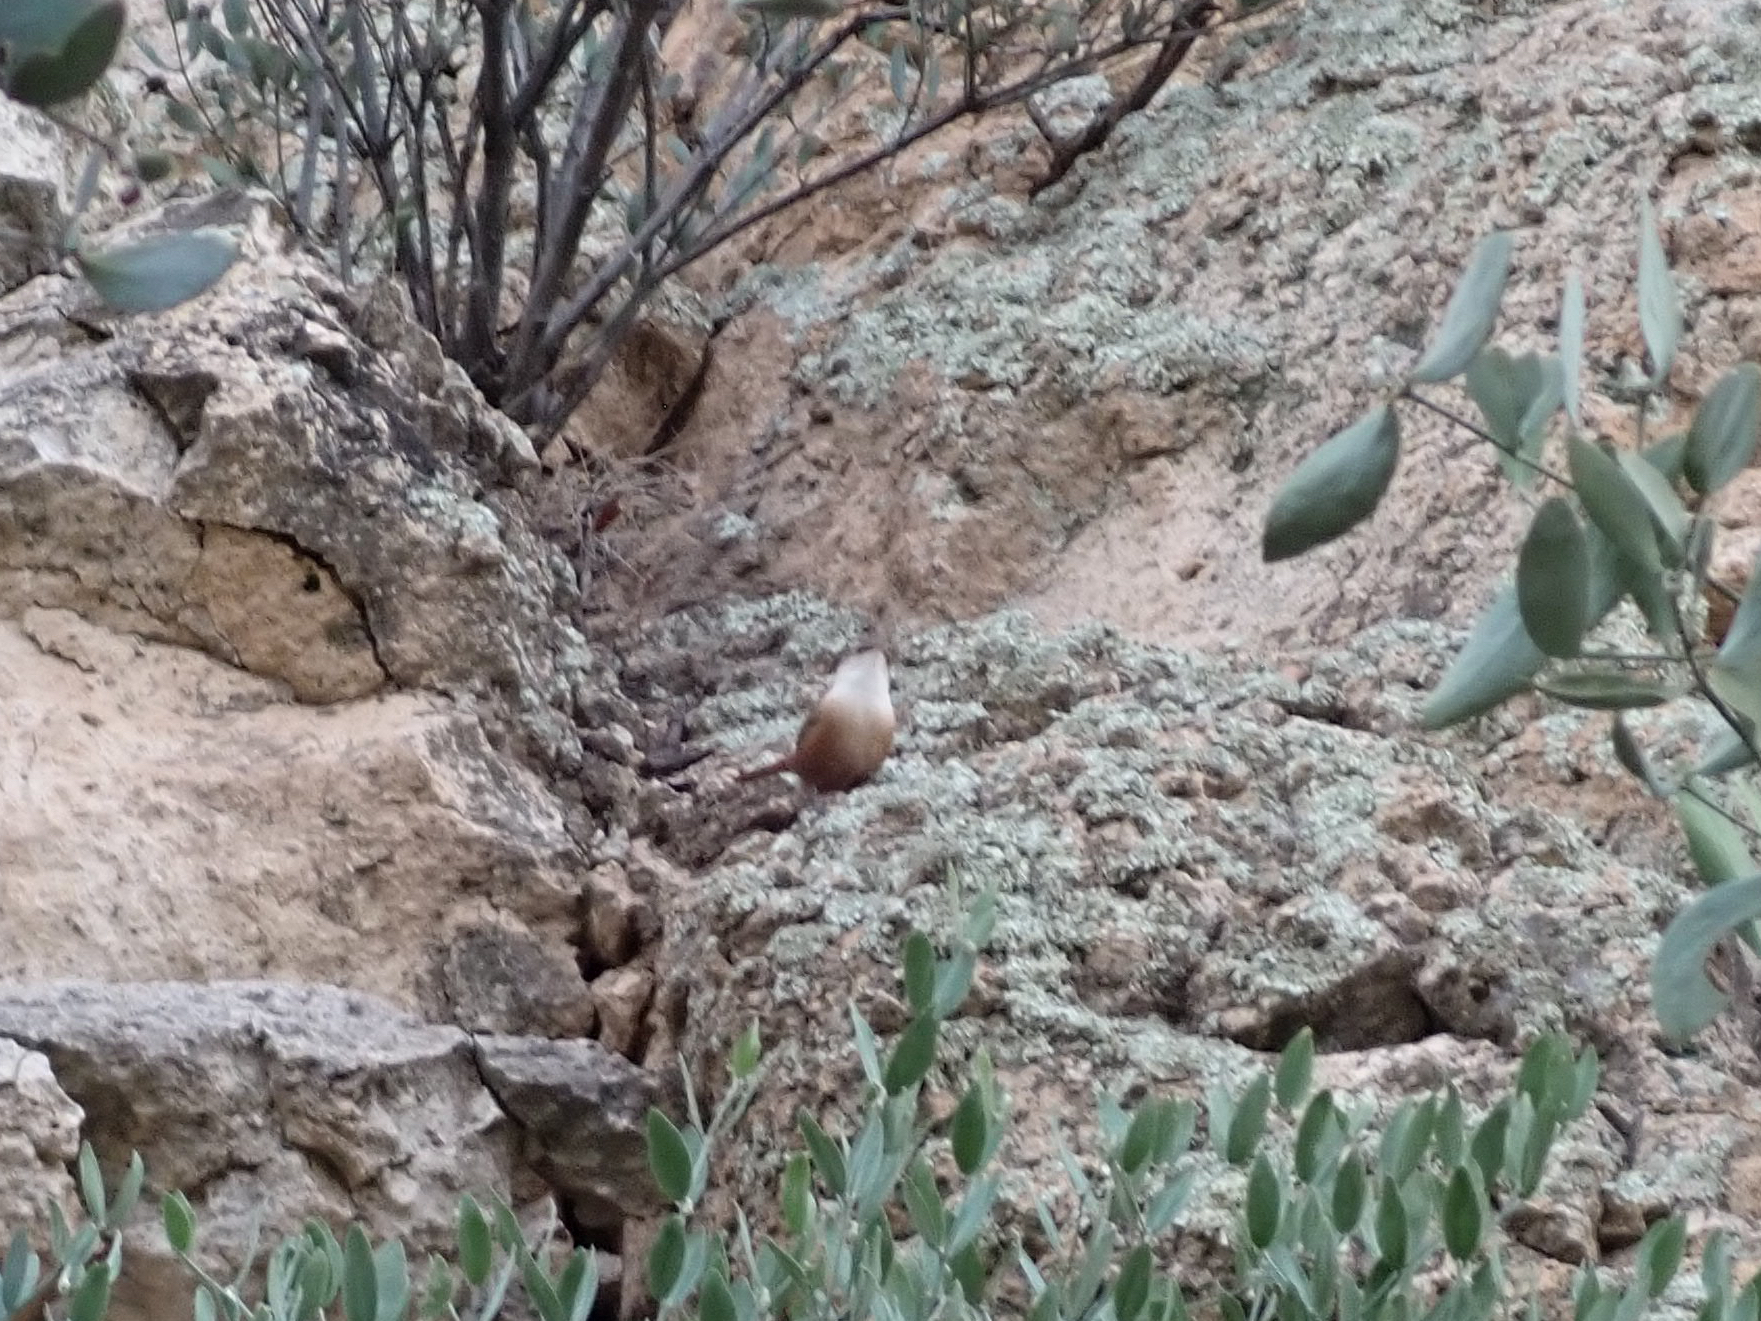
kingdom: Animalia
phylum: Chordata
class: Aves
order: Passeriformes
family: Troglodytidae
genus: Catherpes
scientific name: Catherpes mexicanus
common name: Canyon wren
